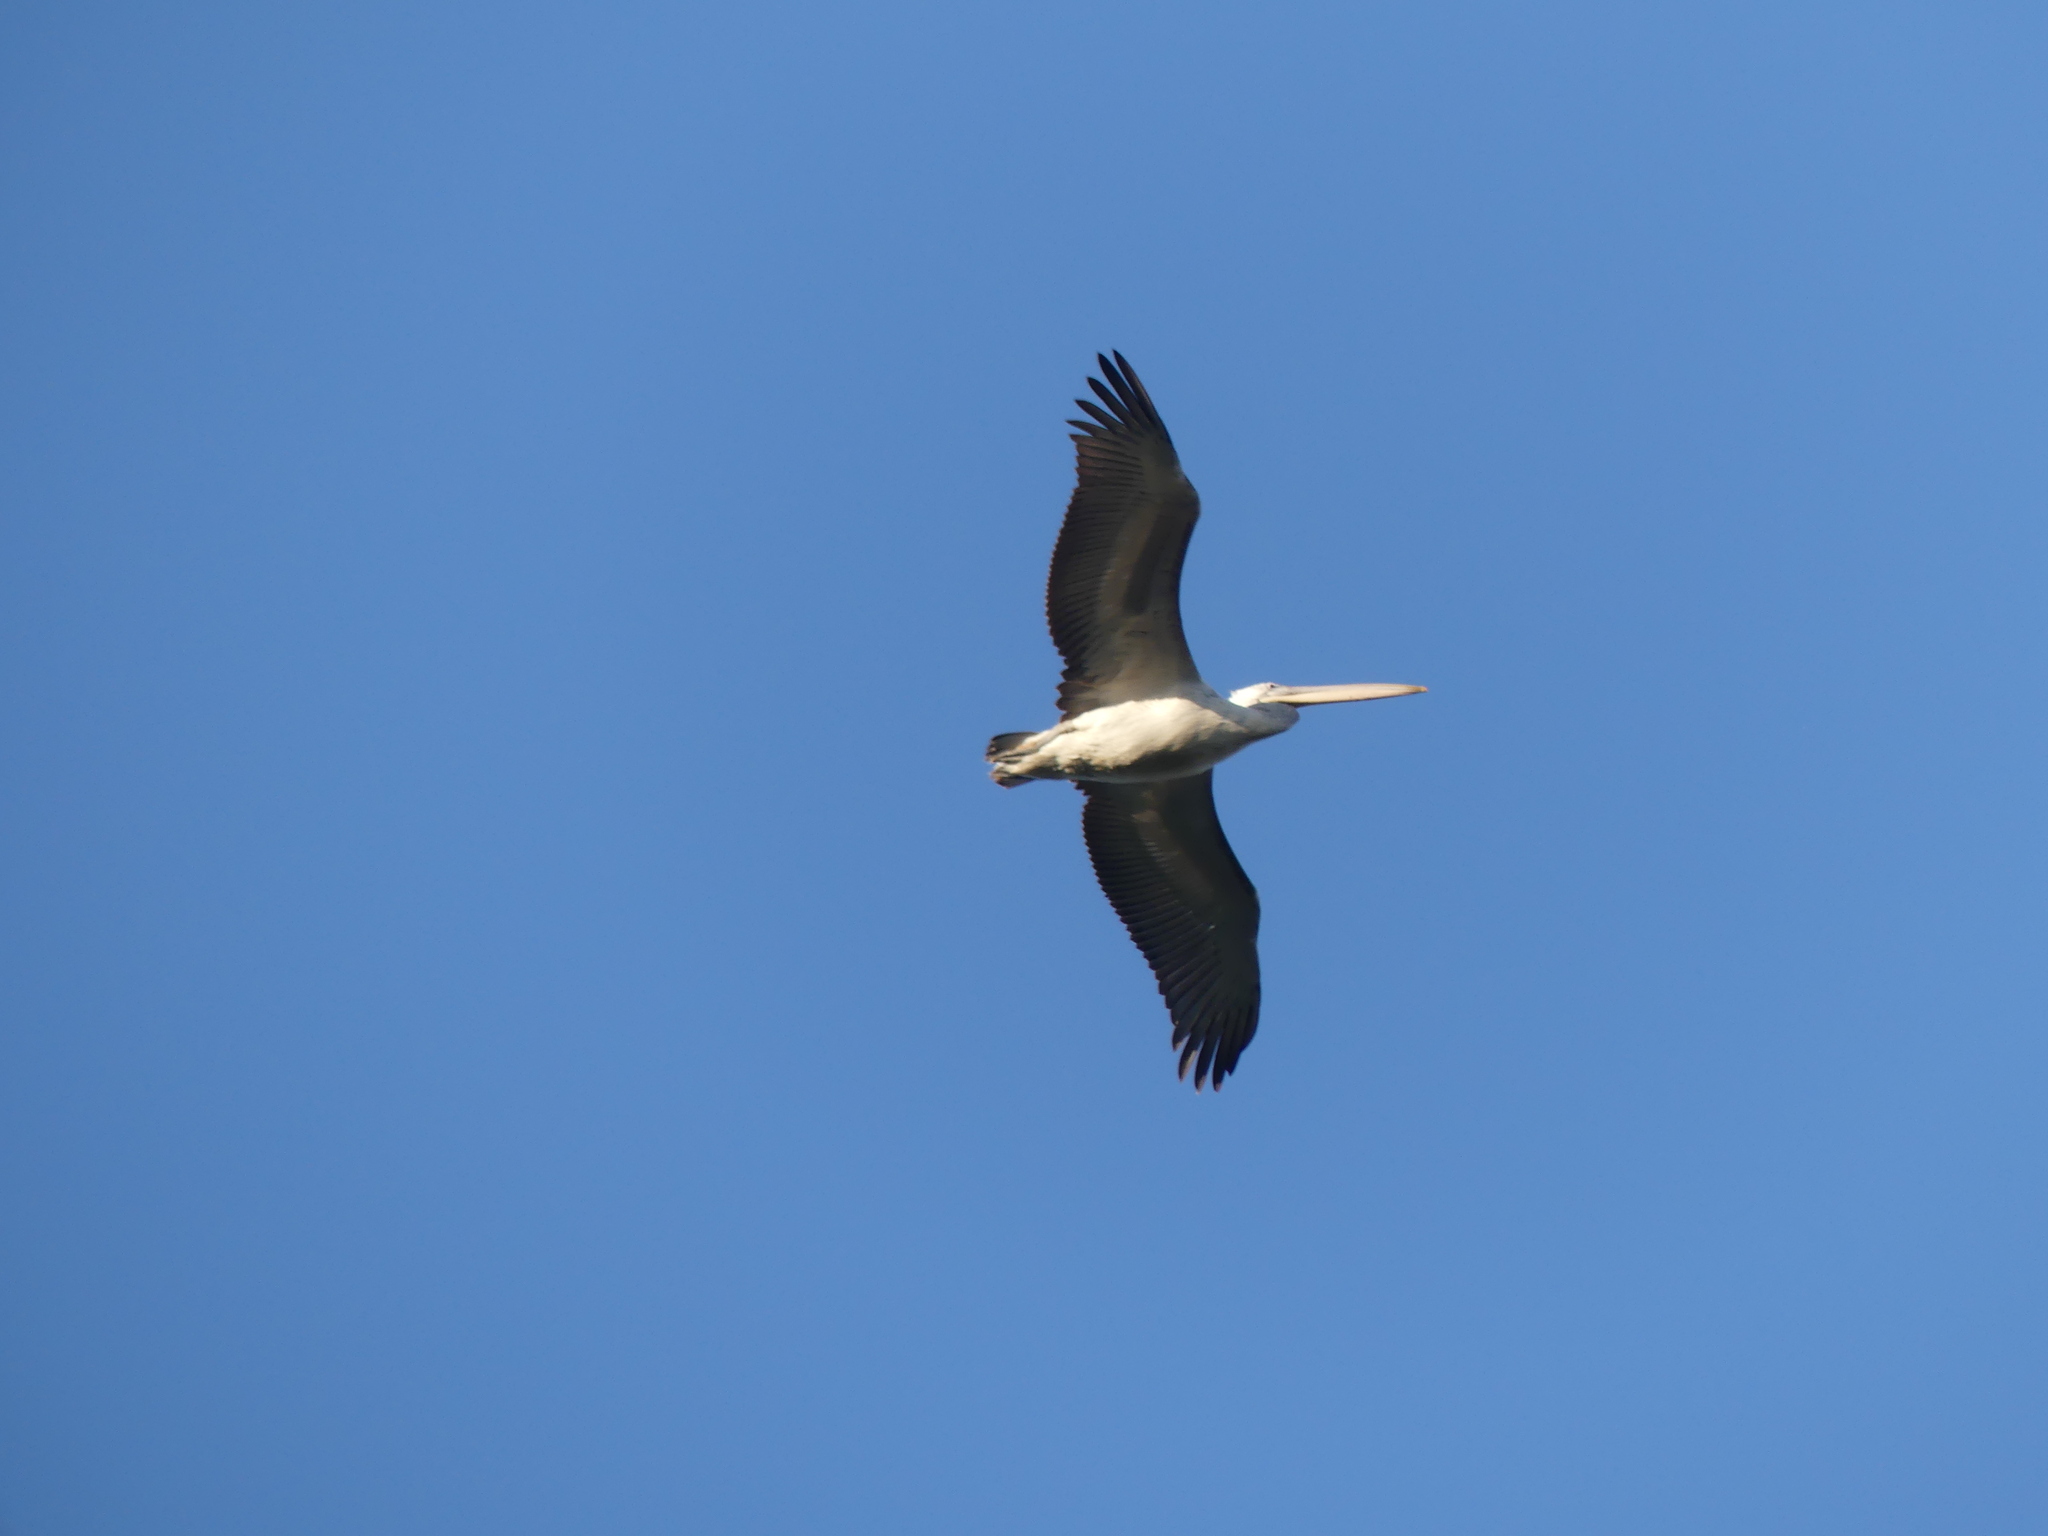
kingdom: Animalia
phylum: Chordata
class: Aves
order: Pelecaniformes
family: Pelecanidae
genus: Pelecanus
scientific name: Pelecanus crispus
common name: Dalmatian pelican
